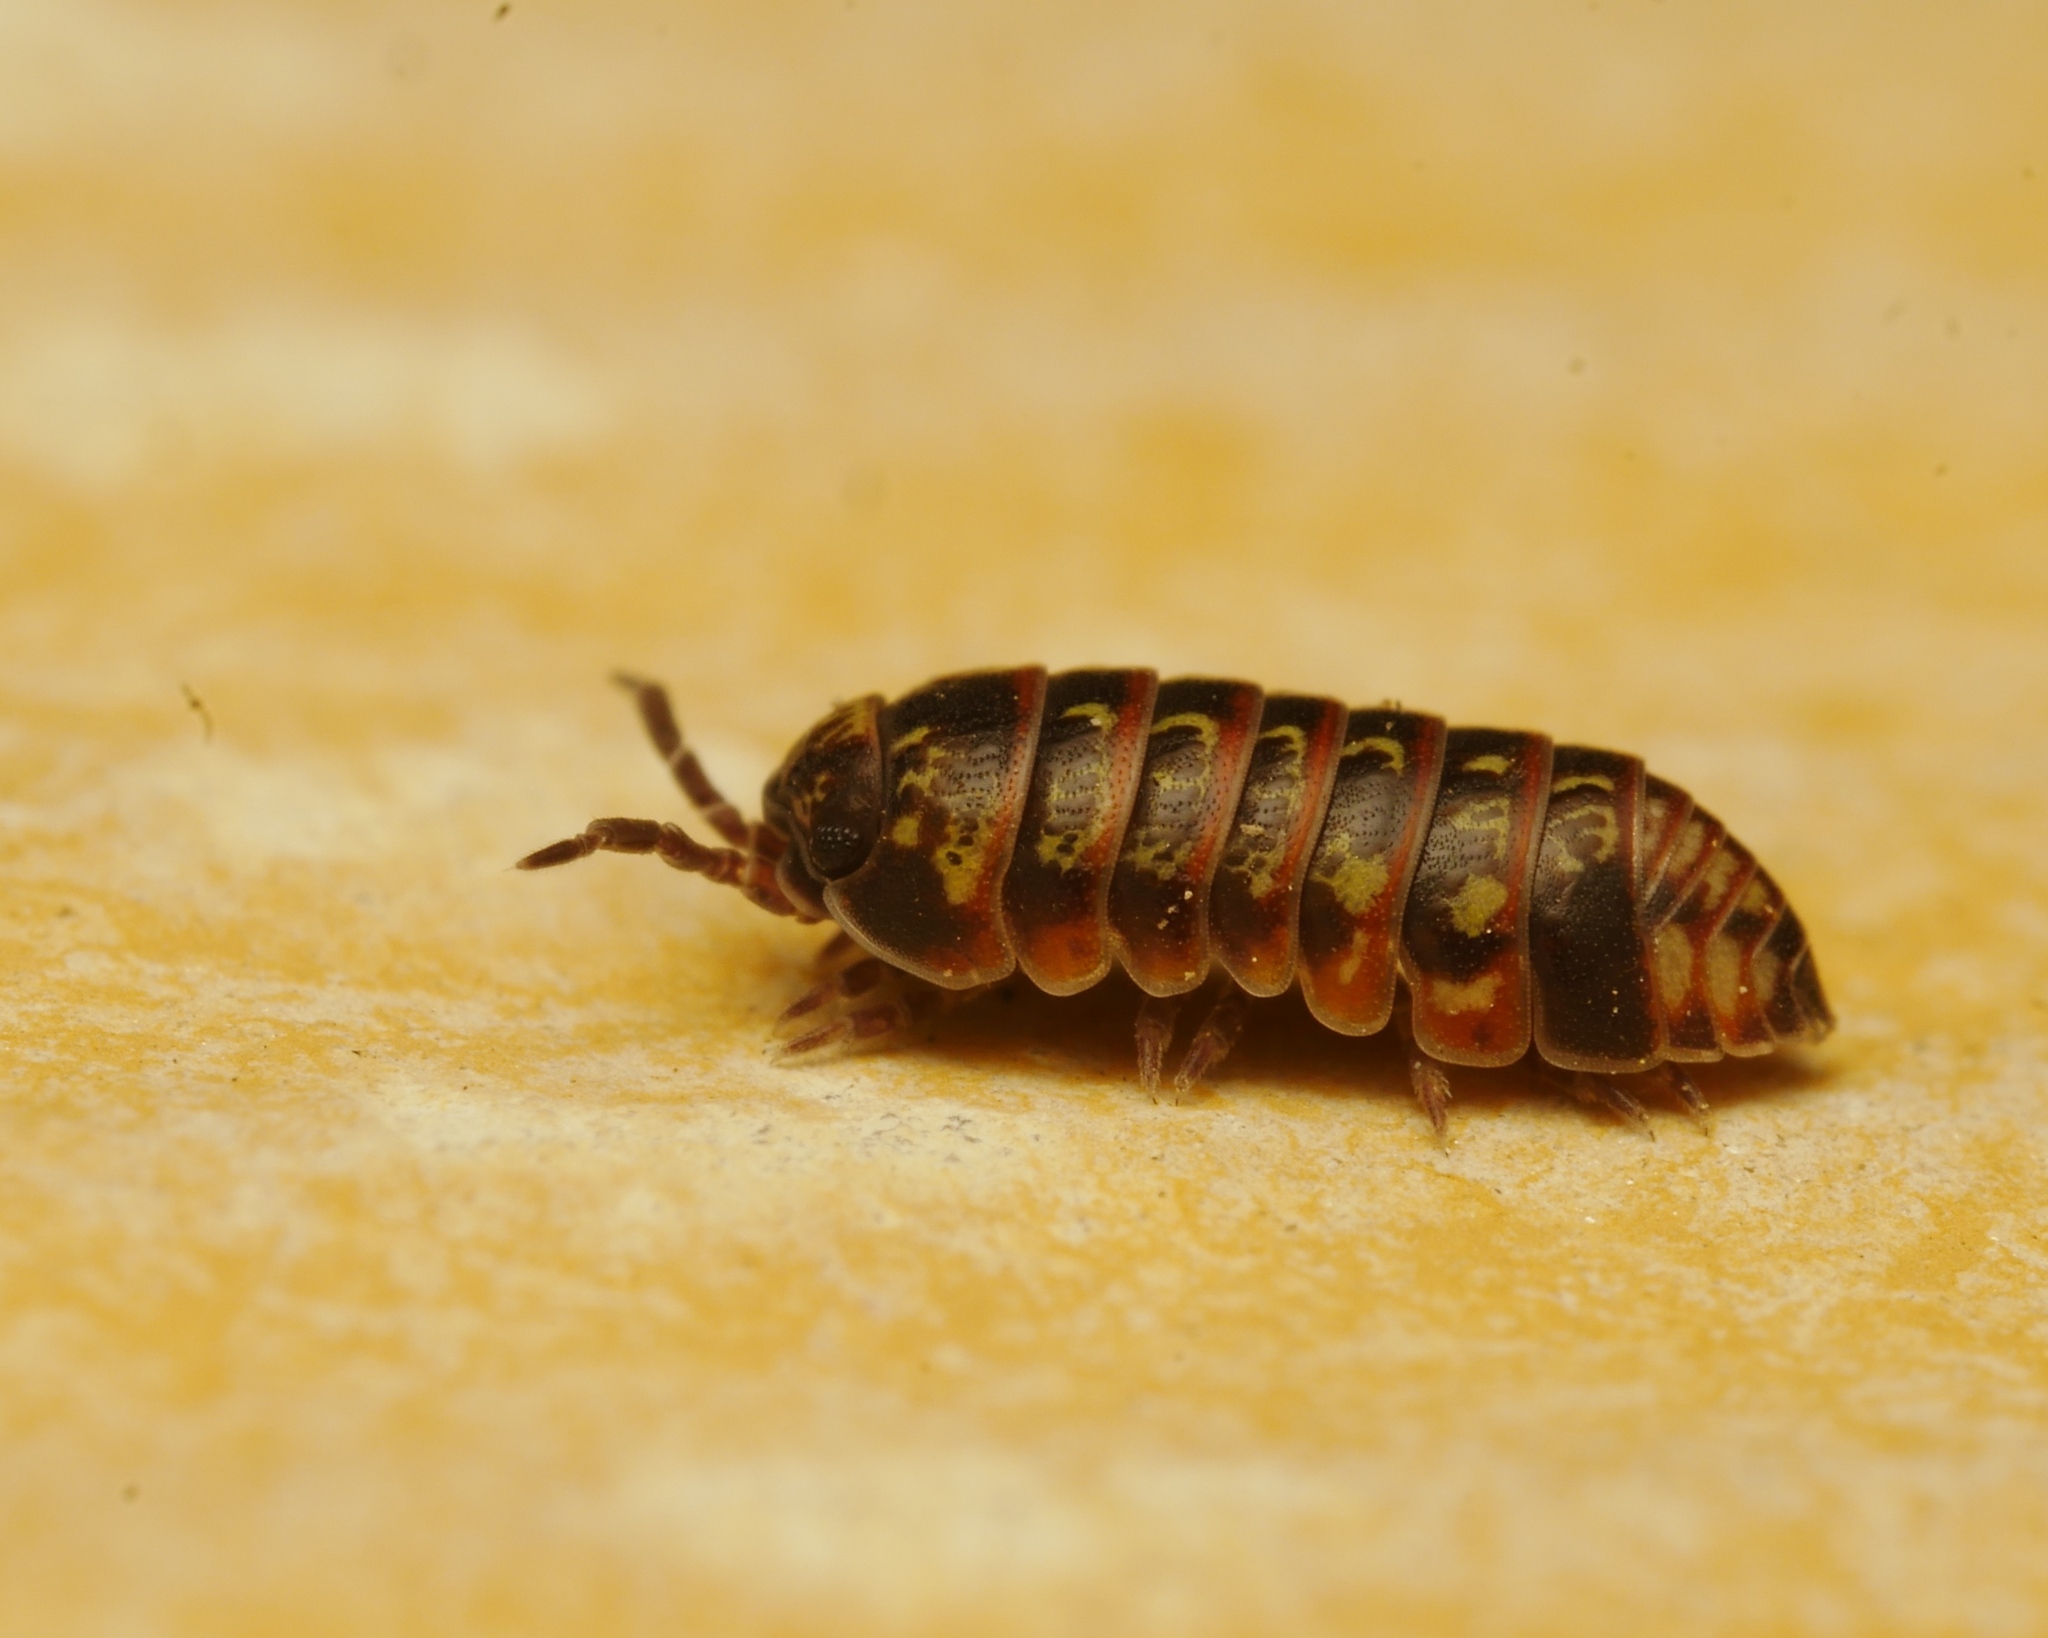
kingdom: Animalia
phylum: Arthropoda
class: Malacostraca
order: Isopoda
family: Armadillidiidae
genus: Armadillidium
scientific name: Armadillidium pulchellum
